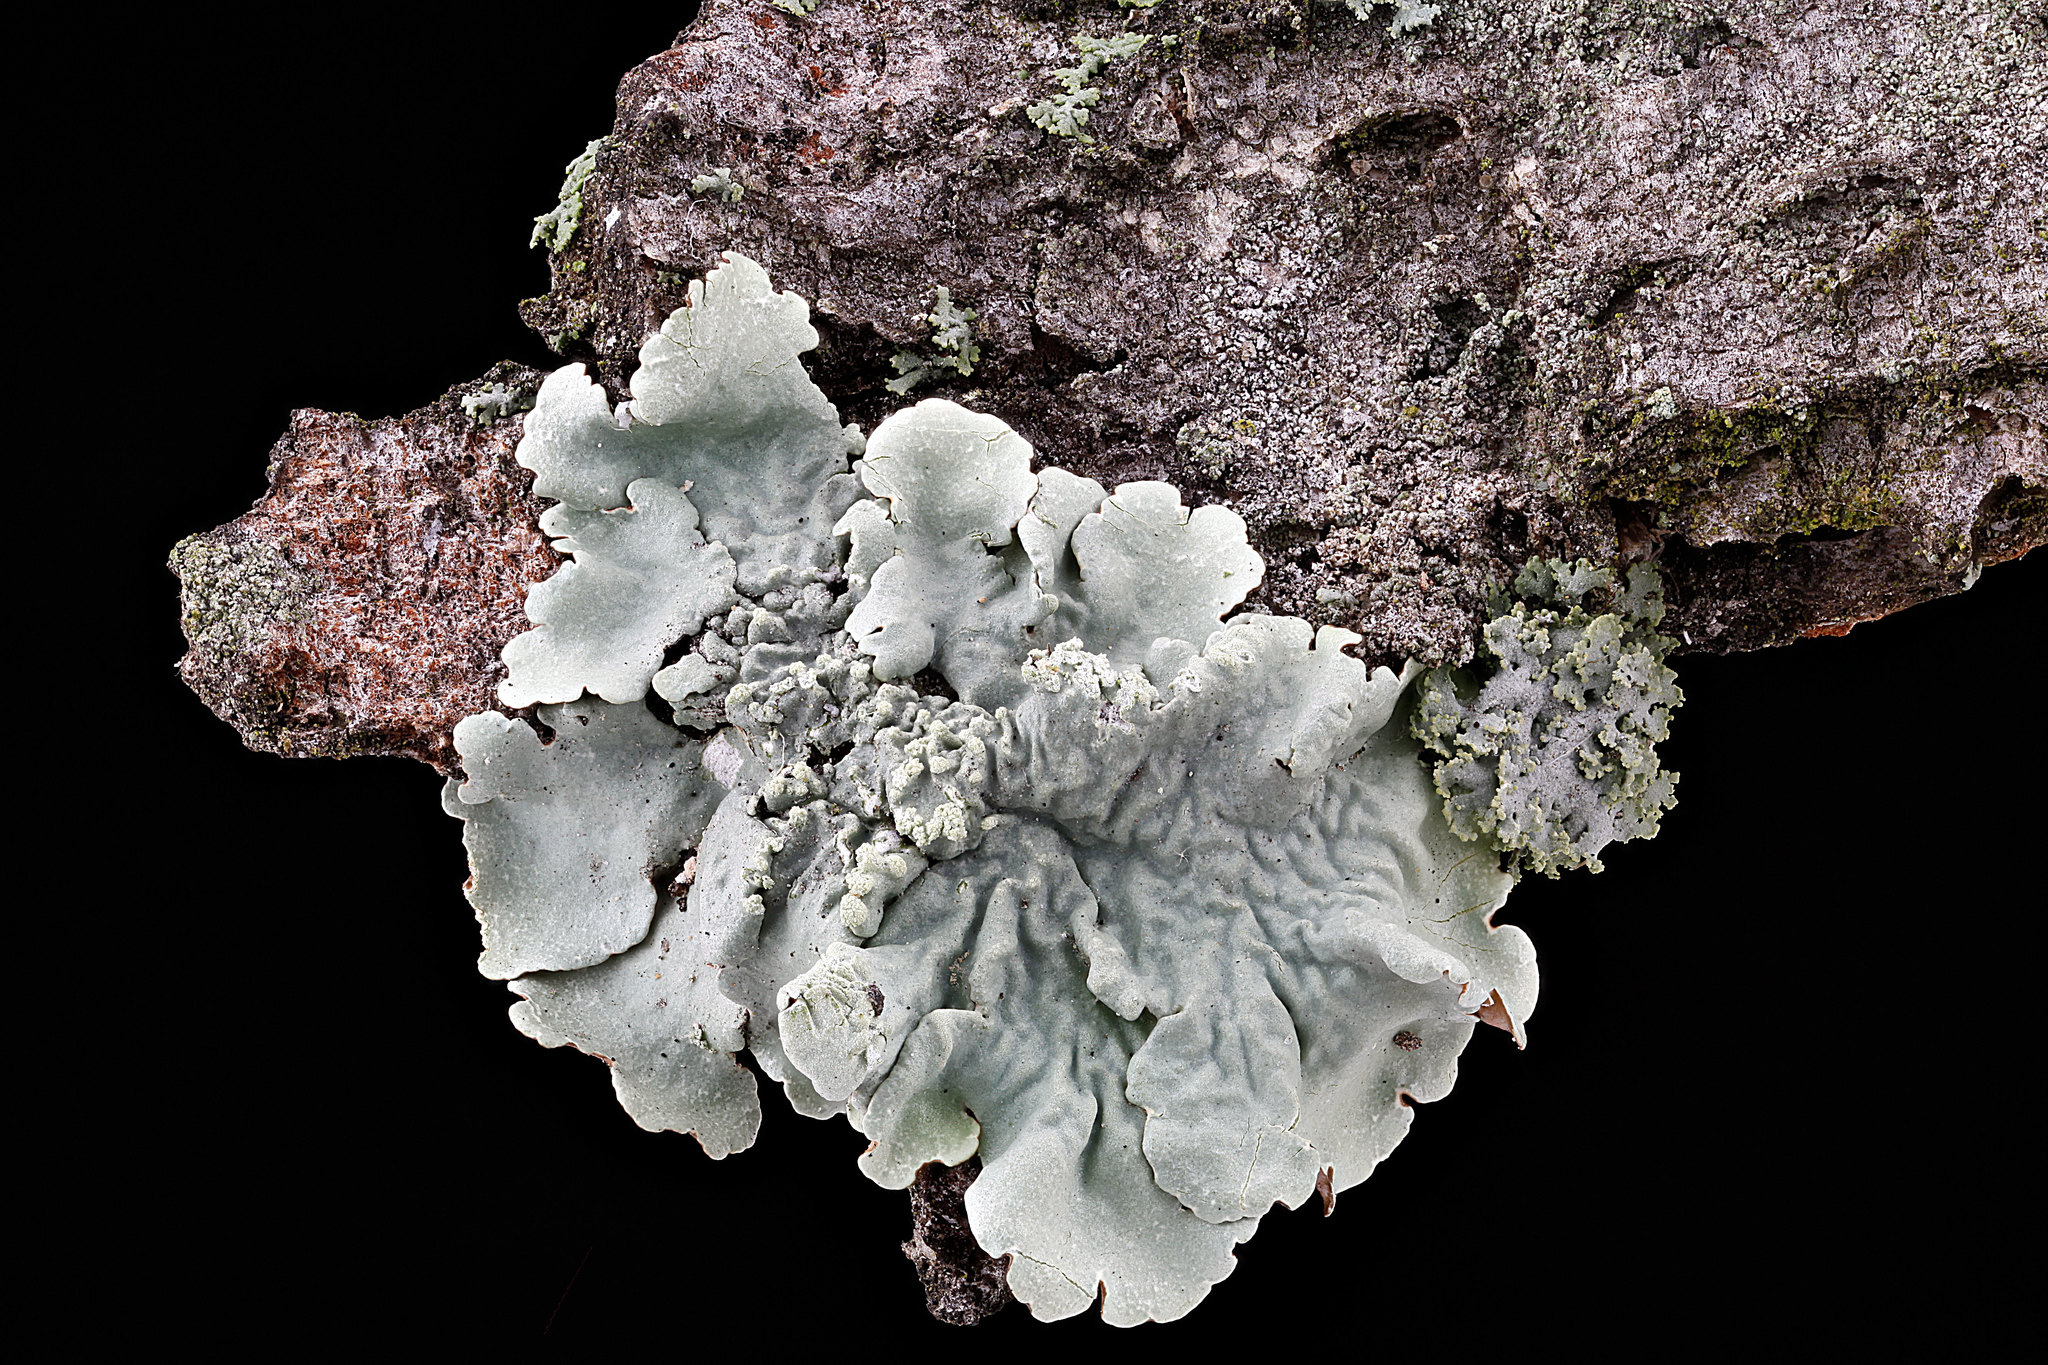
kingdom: Fungi
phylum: Ascomycota
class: Lecanoromycetes
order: Lecanorales
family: Parmeliaceae
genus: Flavoparmelia
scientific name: Flavoparmelia caperata
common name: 40-mile per hour lichen
